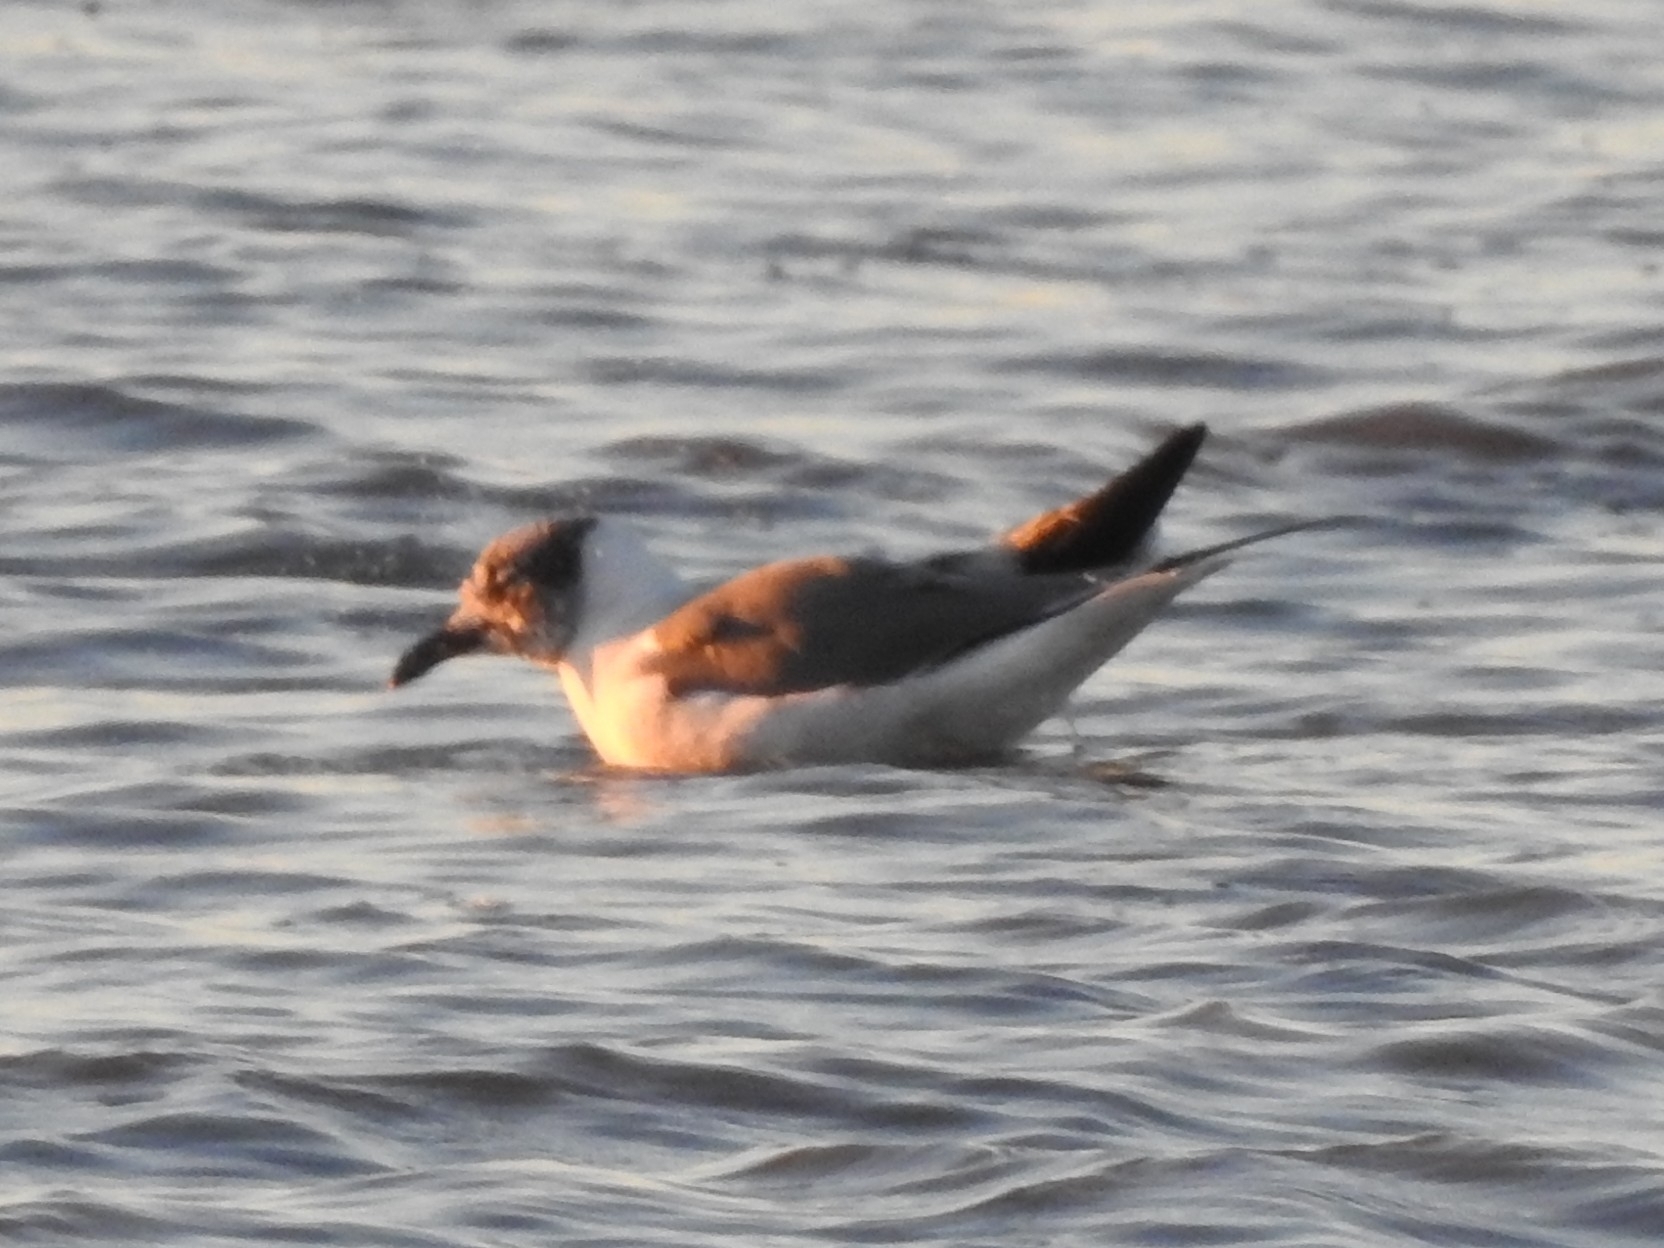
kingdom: Animalia
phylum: Chordata
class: Aves
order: Charadriiformes
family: Laridae
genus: Leucophaeus
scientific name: Leucophaeus atricilla
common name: Laughing gull
